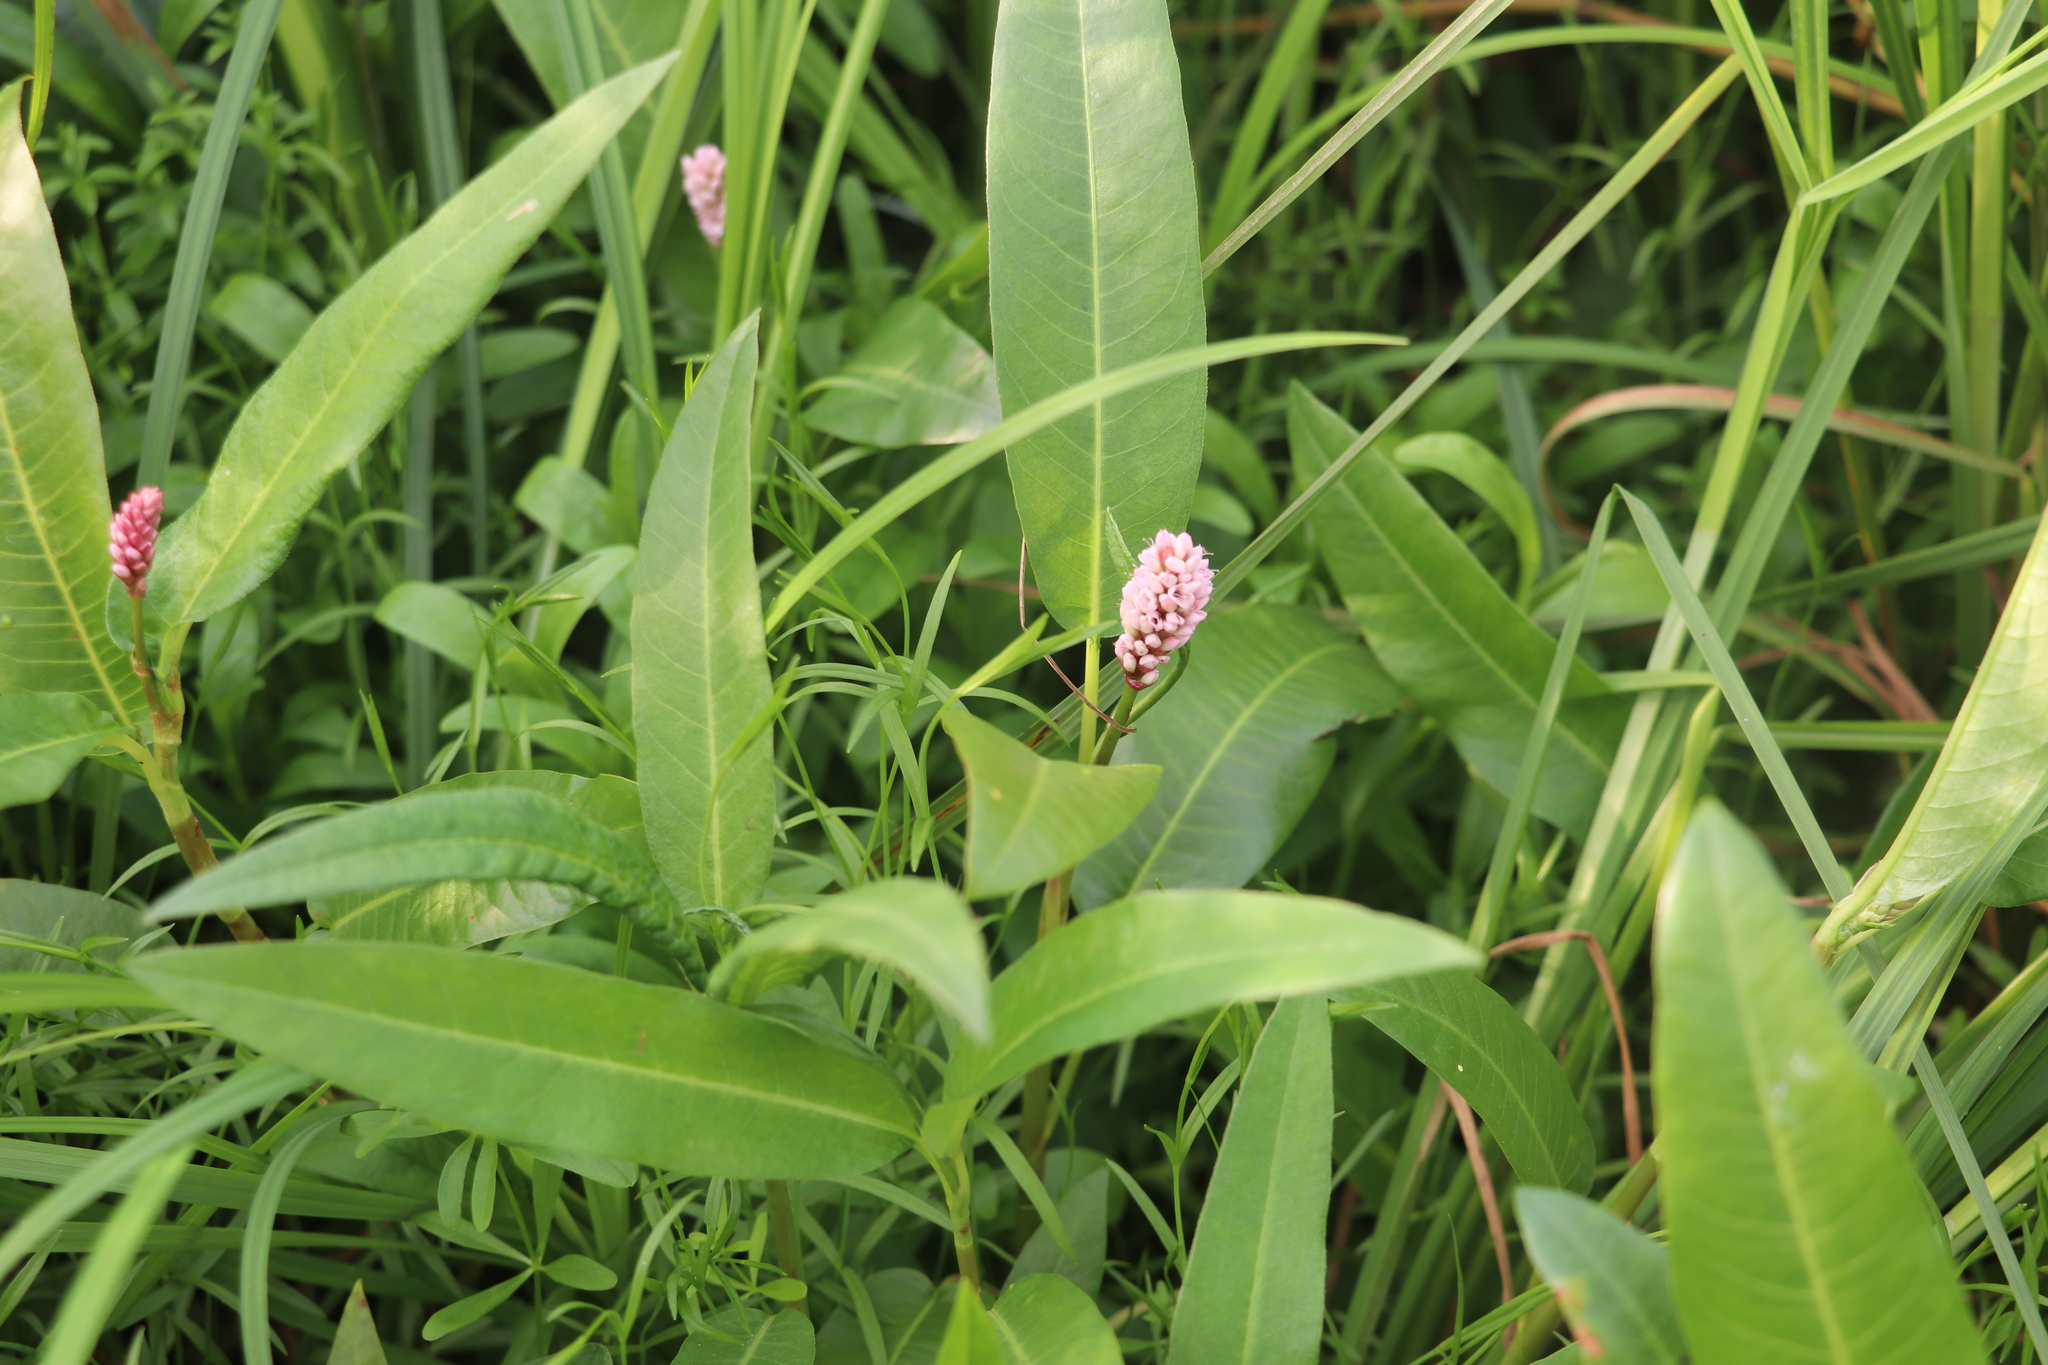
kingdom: Plantae
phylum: Tracheophyta
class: Magnoliopsida
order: Caryophyllales
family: Polygonaceae
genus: Persicaria
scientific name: Persicaria amphibia
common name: Amphibious bistort
